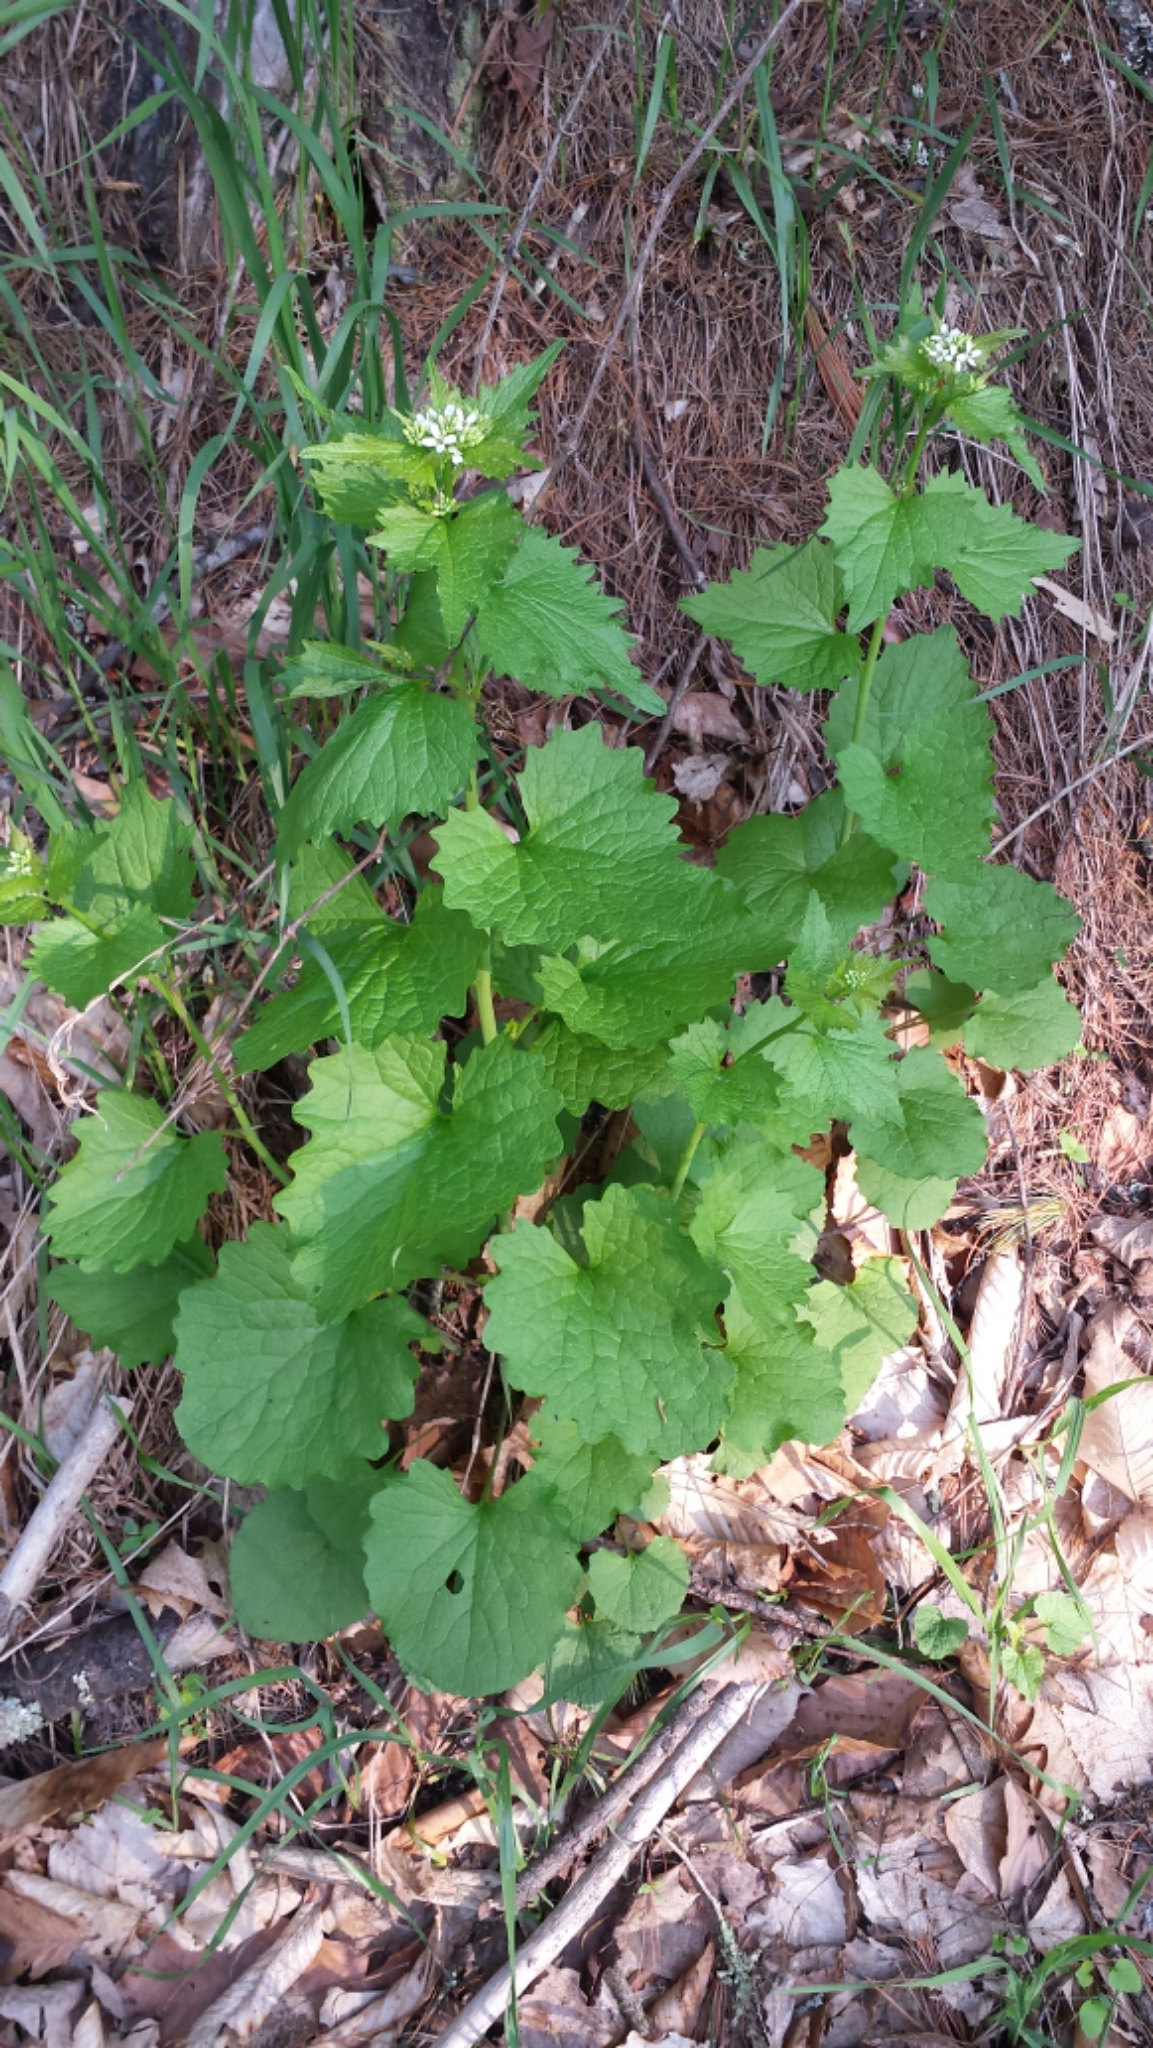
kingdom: Plantae
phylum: Tracheophyta
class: Magnoliopsida
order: Brassicales
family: Brassicaceae
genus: Alliaria
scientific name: Alliaria petiolata
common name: Garlic mustard
